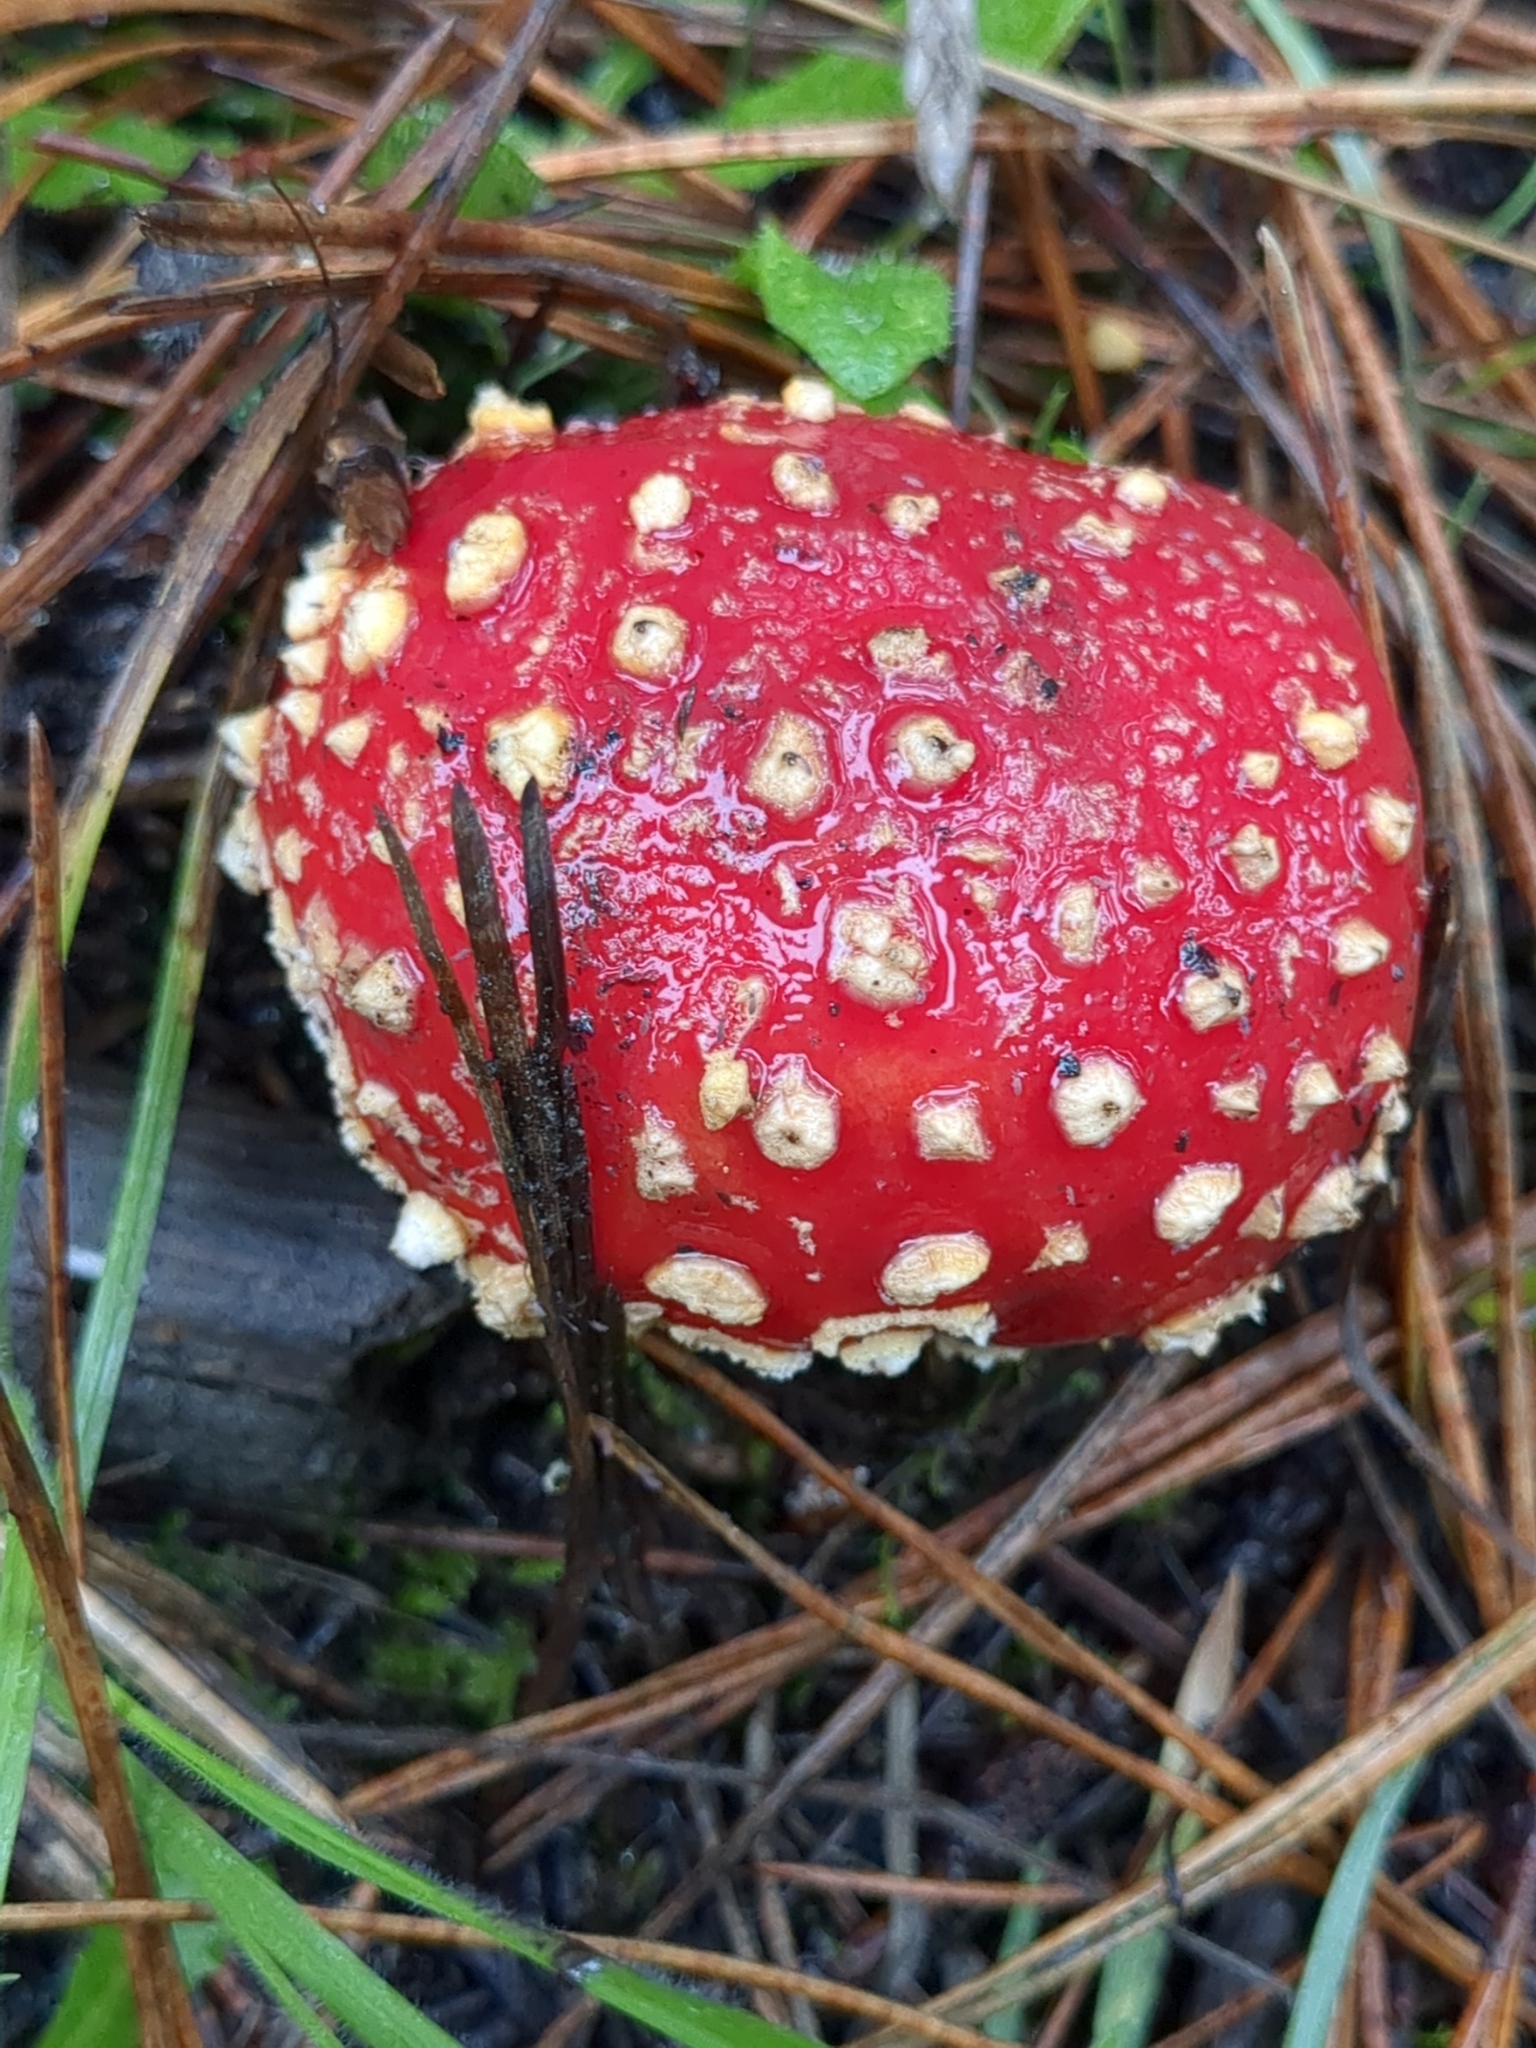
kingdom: Fungi
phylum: Basidiomycota
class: Agaricomycetes
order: Agaricales
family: Amanitaceae
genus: Amanita
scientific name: Amanita muscaria
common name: Fly agaric
